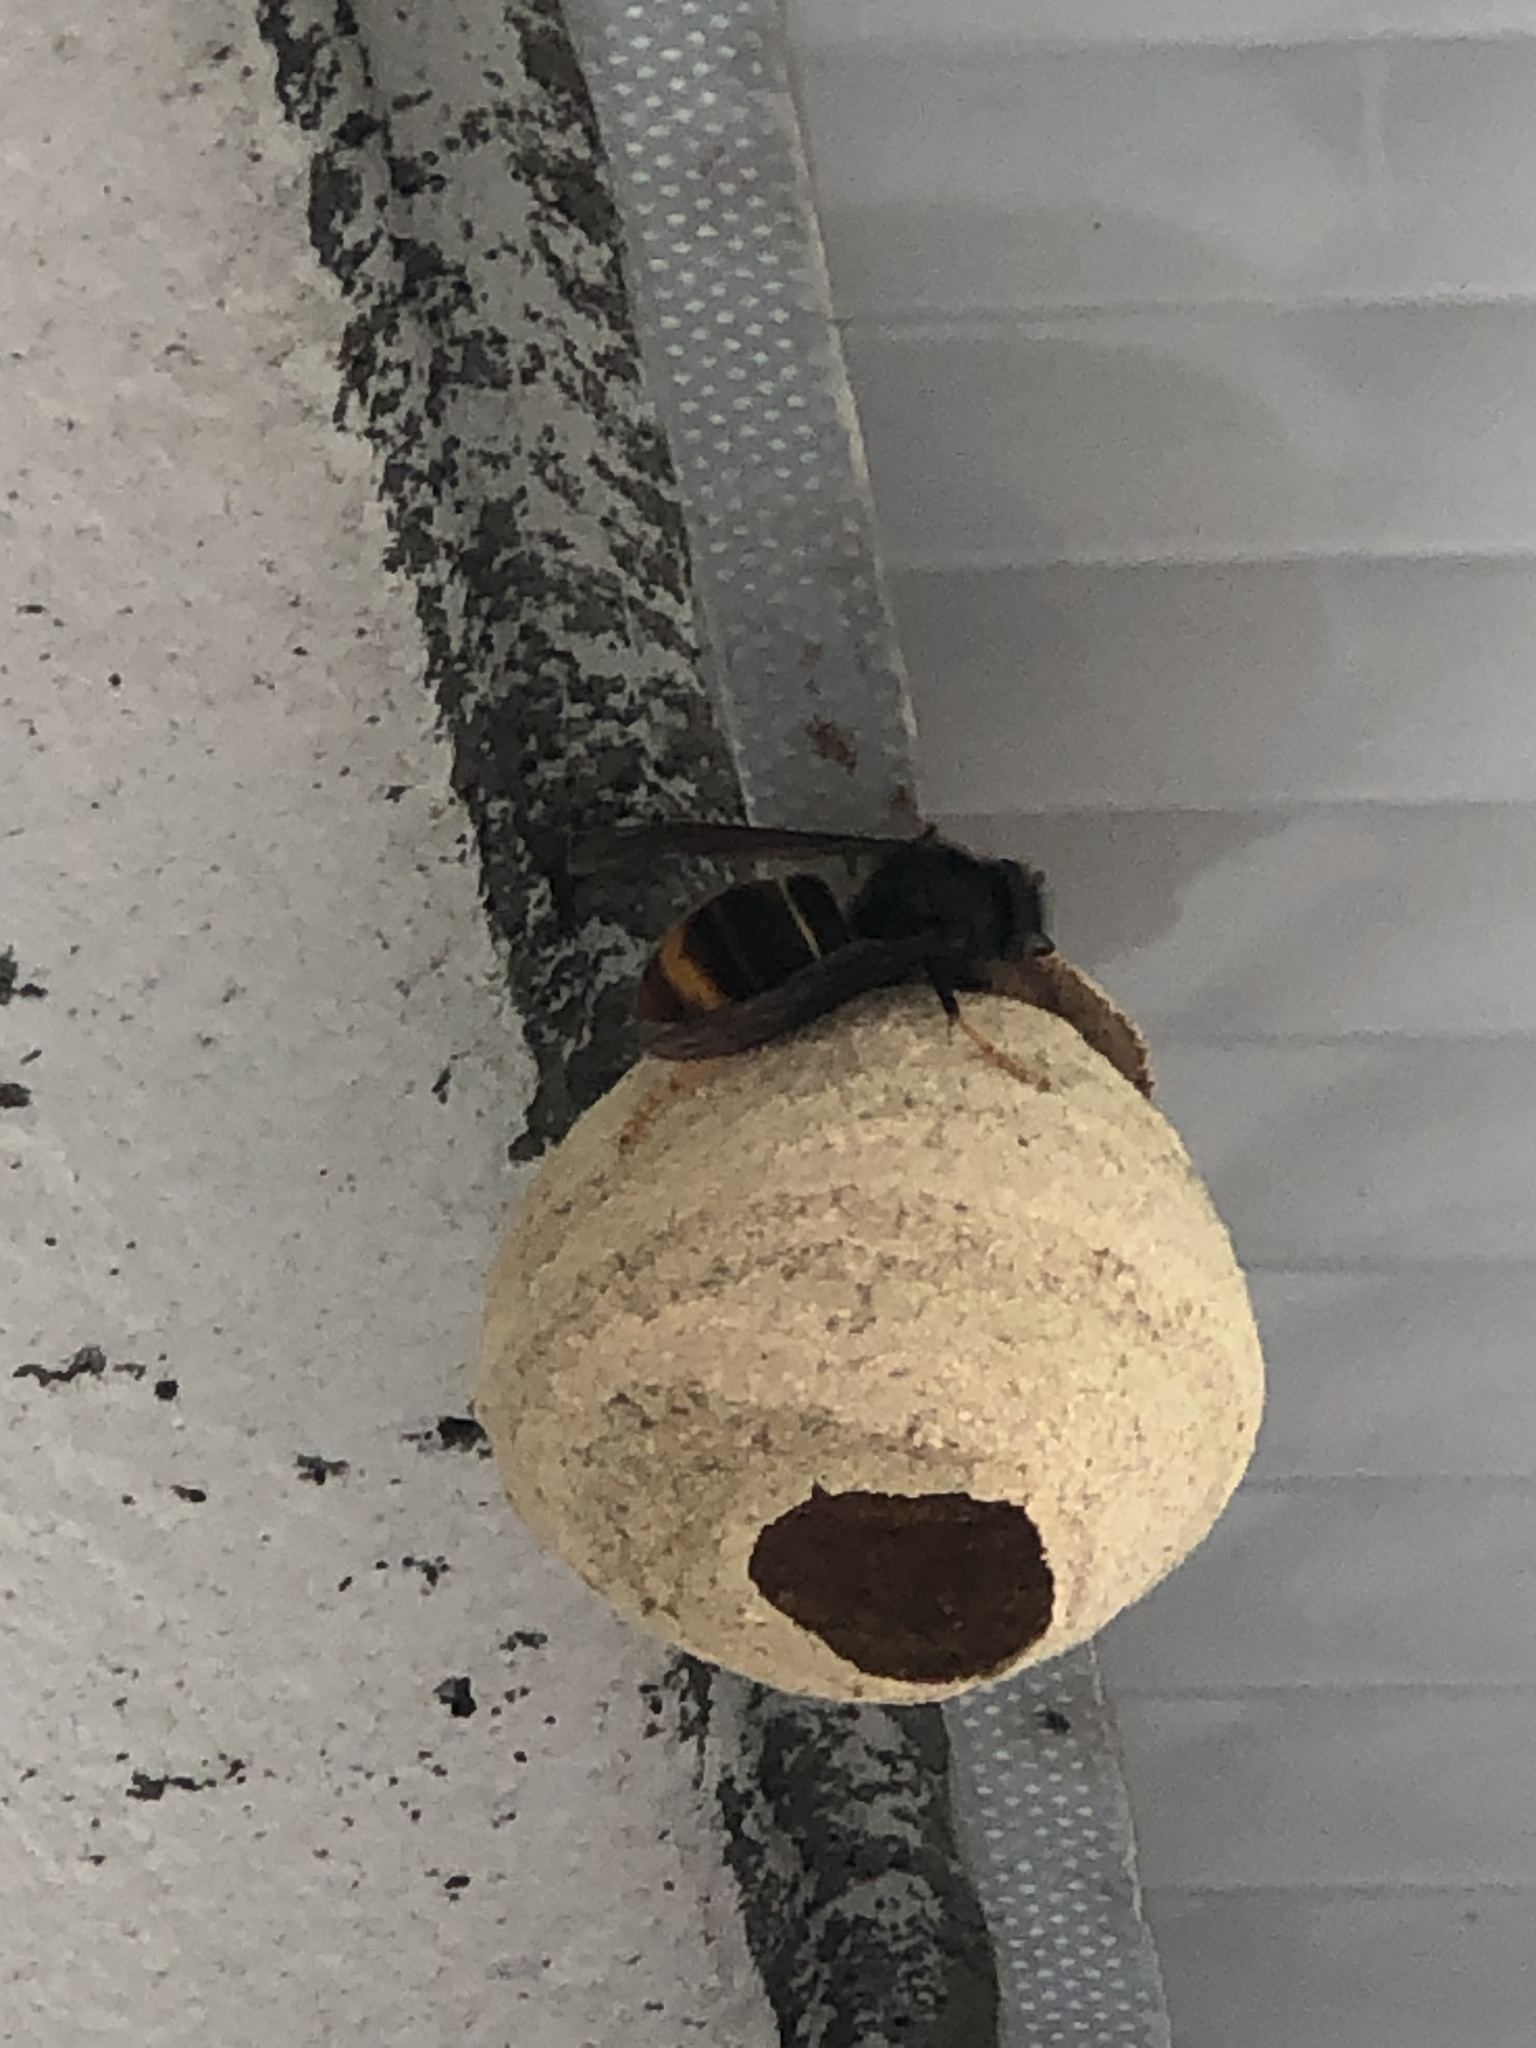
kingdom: Animalia
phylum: Arthropoda
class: Insecta
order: Hymenoptera
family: Vespidae
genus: Vespa
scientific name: Vespa velutina
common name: Asian hornet
